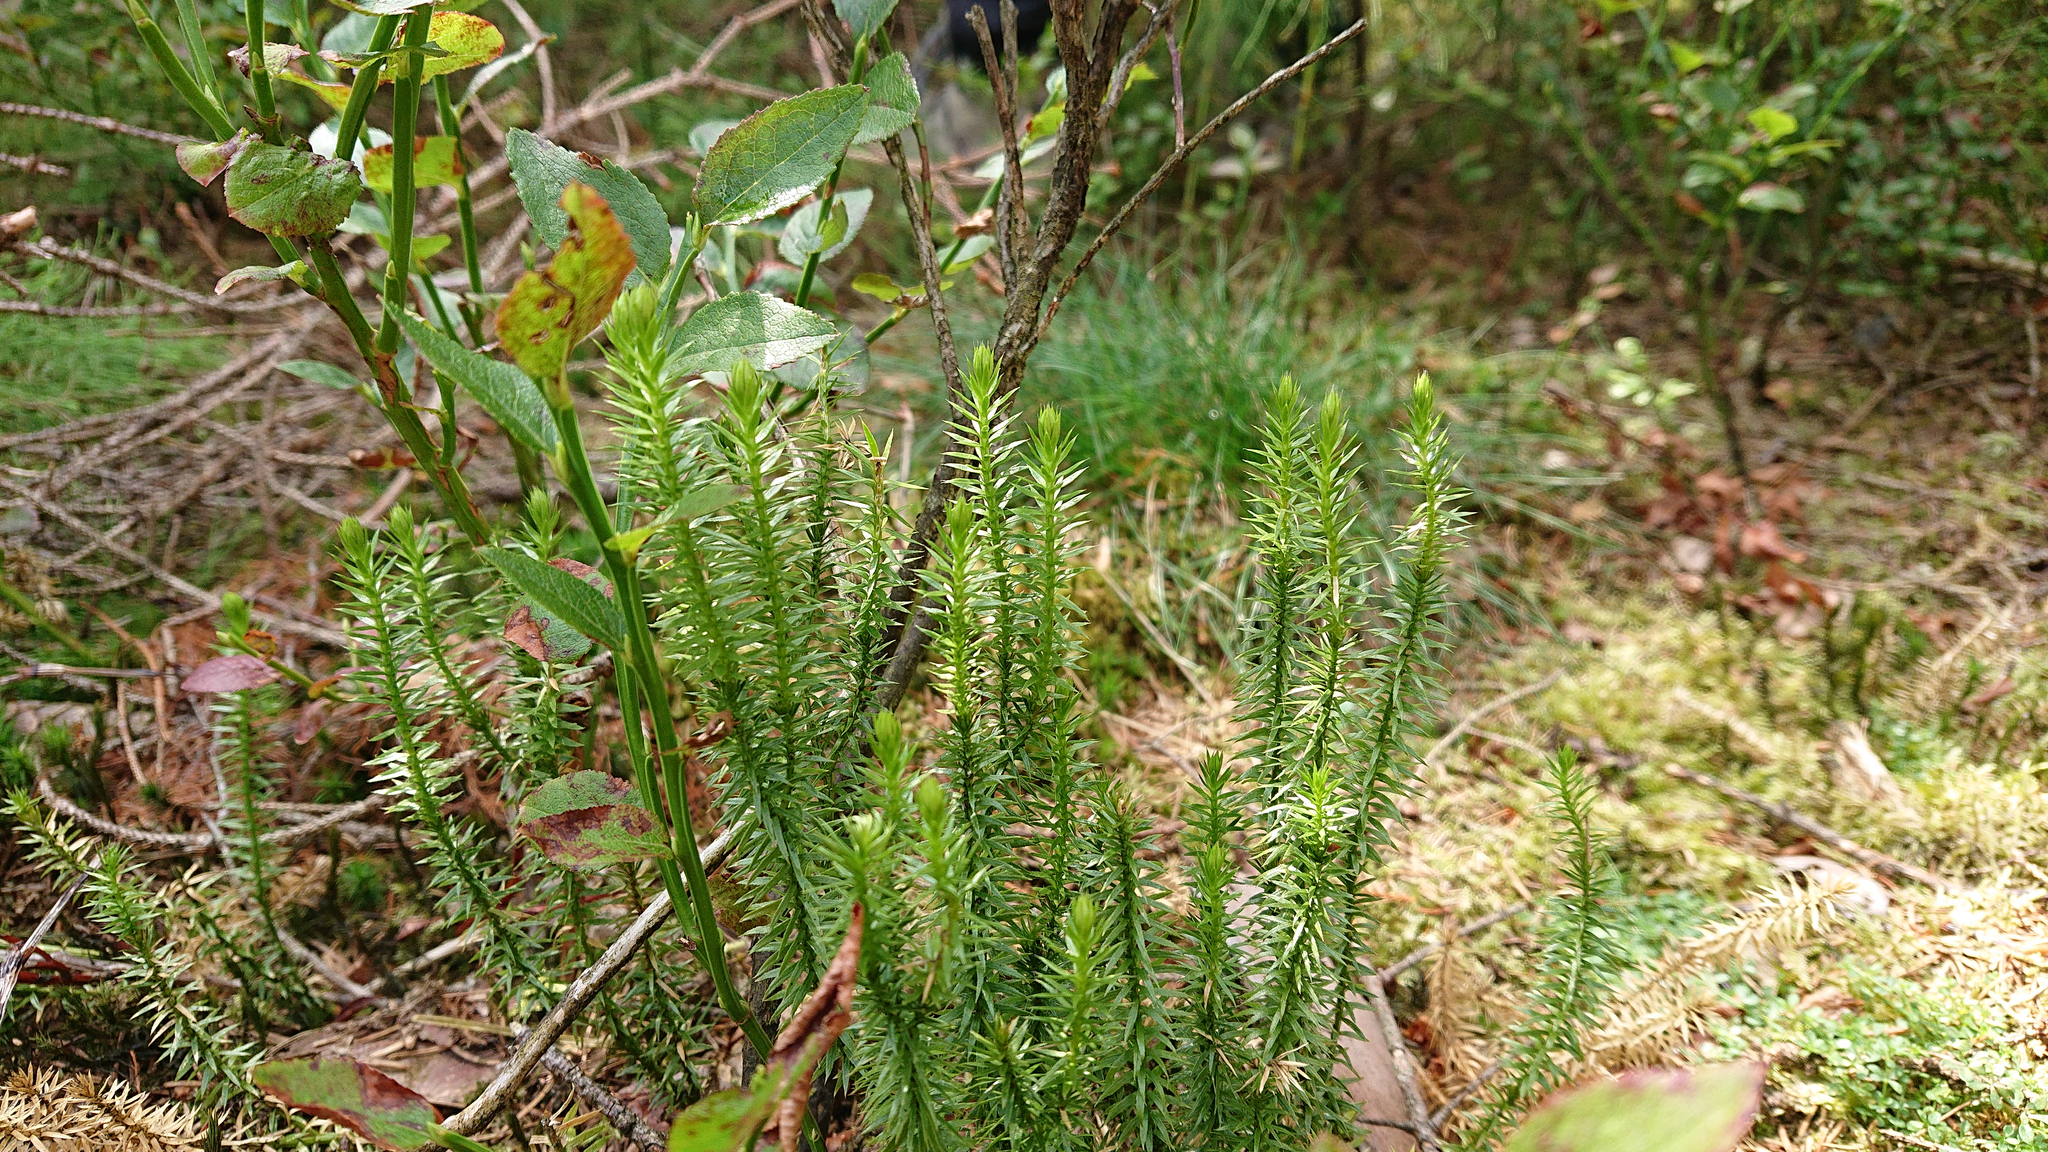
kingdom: Plantae
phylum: Tracheophyta
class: Lycopodiopsida
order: Lycopodiales
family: Lycopodiaceae
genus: Spinulum
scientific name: Spinulum annotinum
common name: Interrupted club-moss
